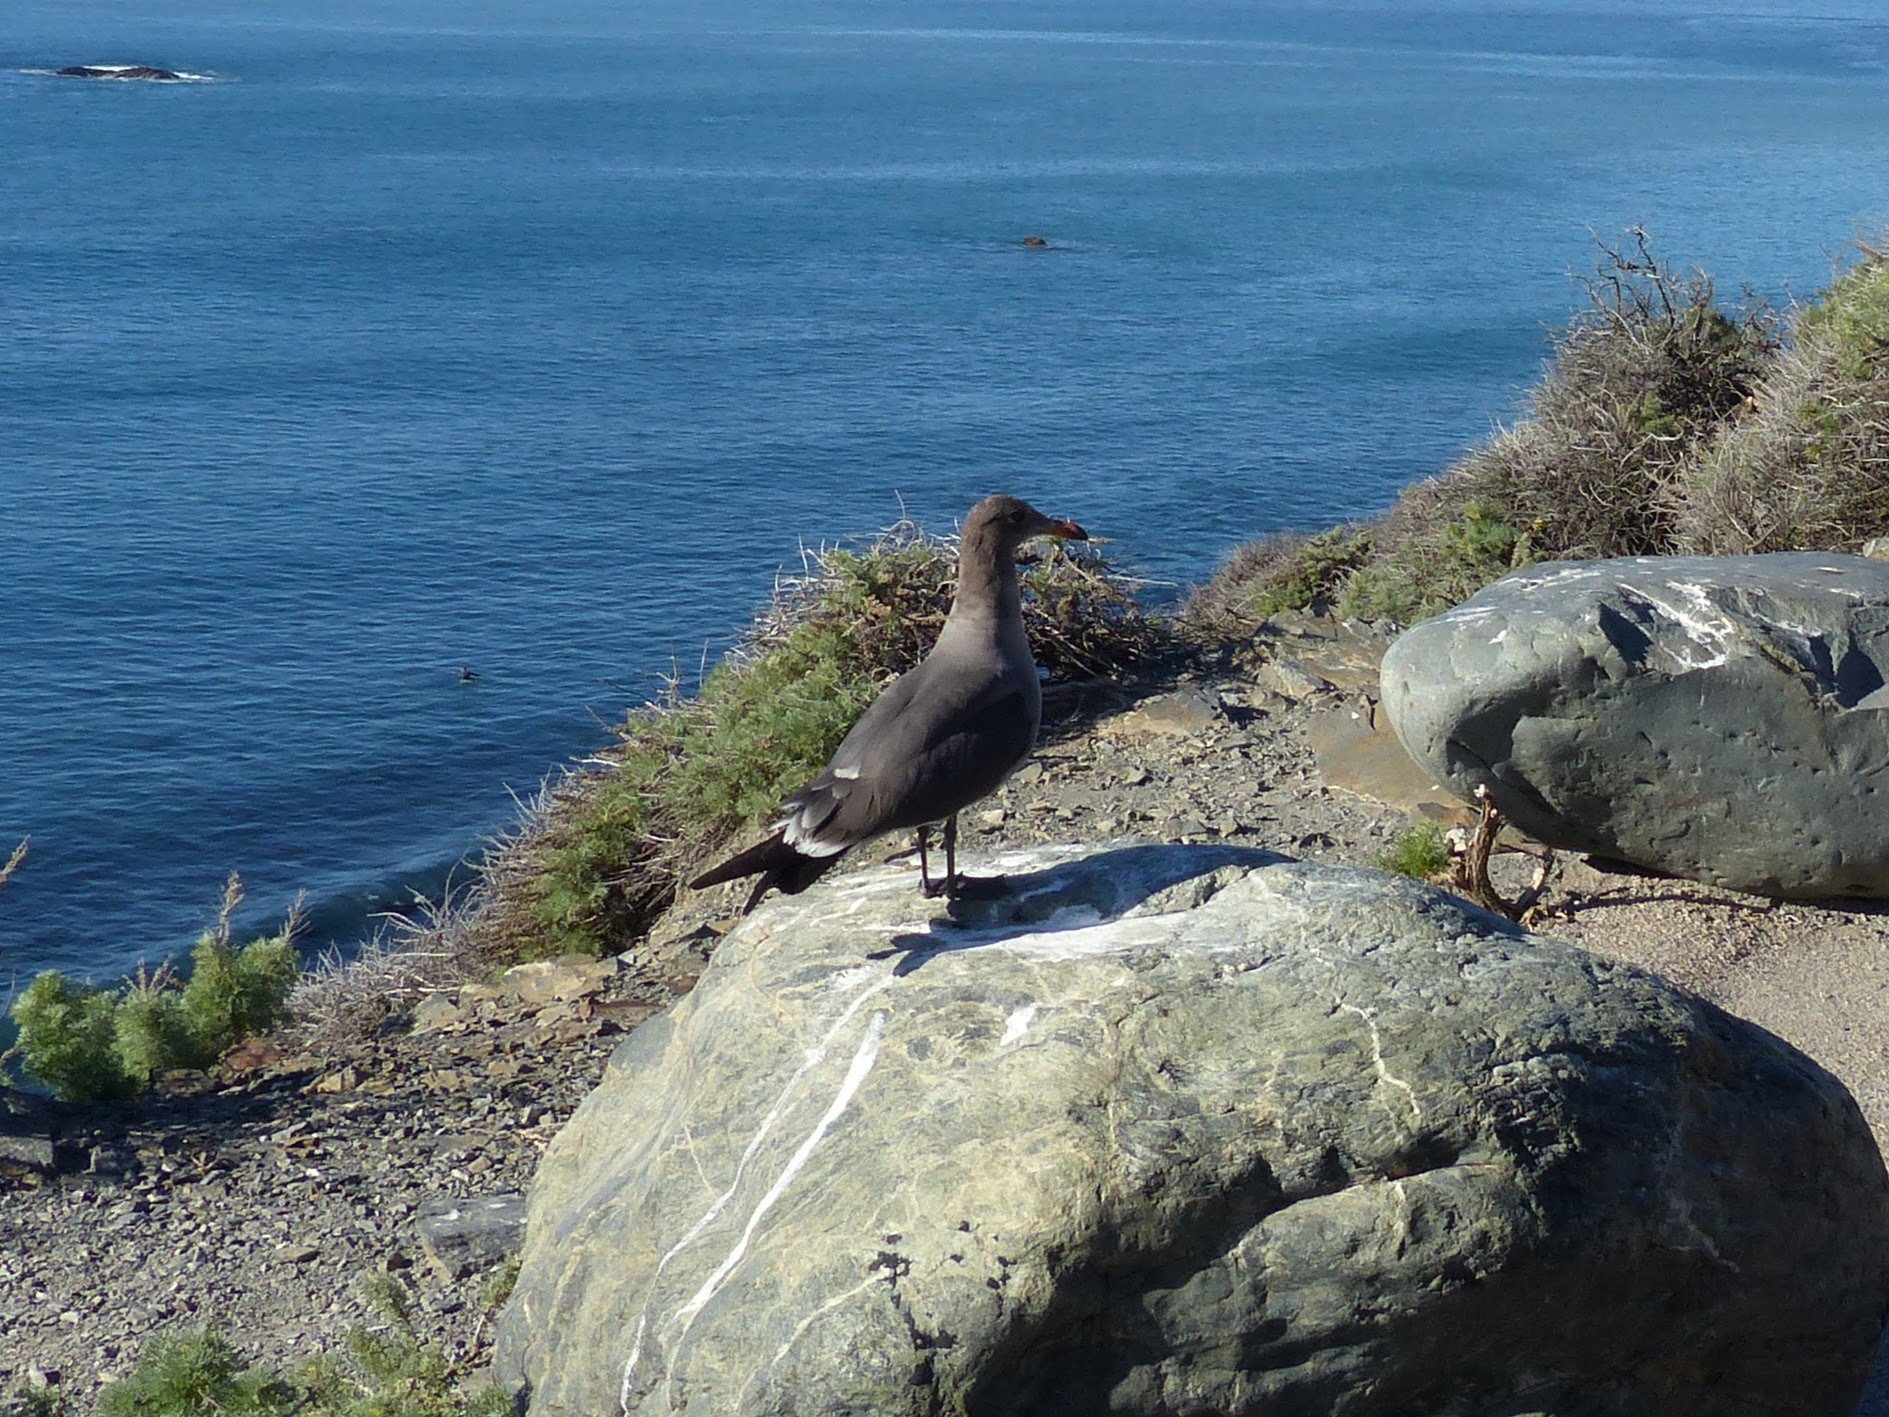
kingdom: Animalia
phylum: Chordata
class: Aves
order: Charadriiformes
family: Laridae
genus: Larus
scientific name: Larus heermanni
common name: Heermann's gull
